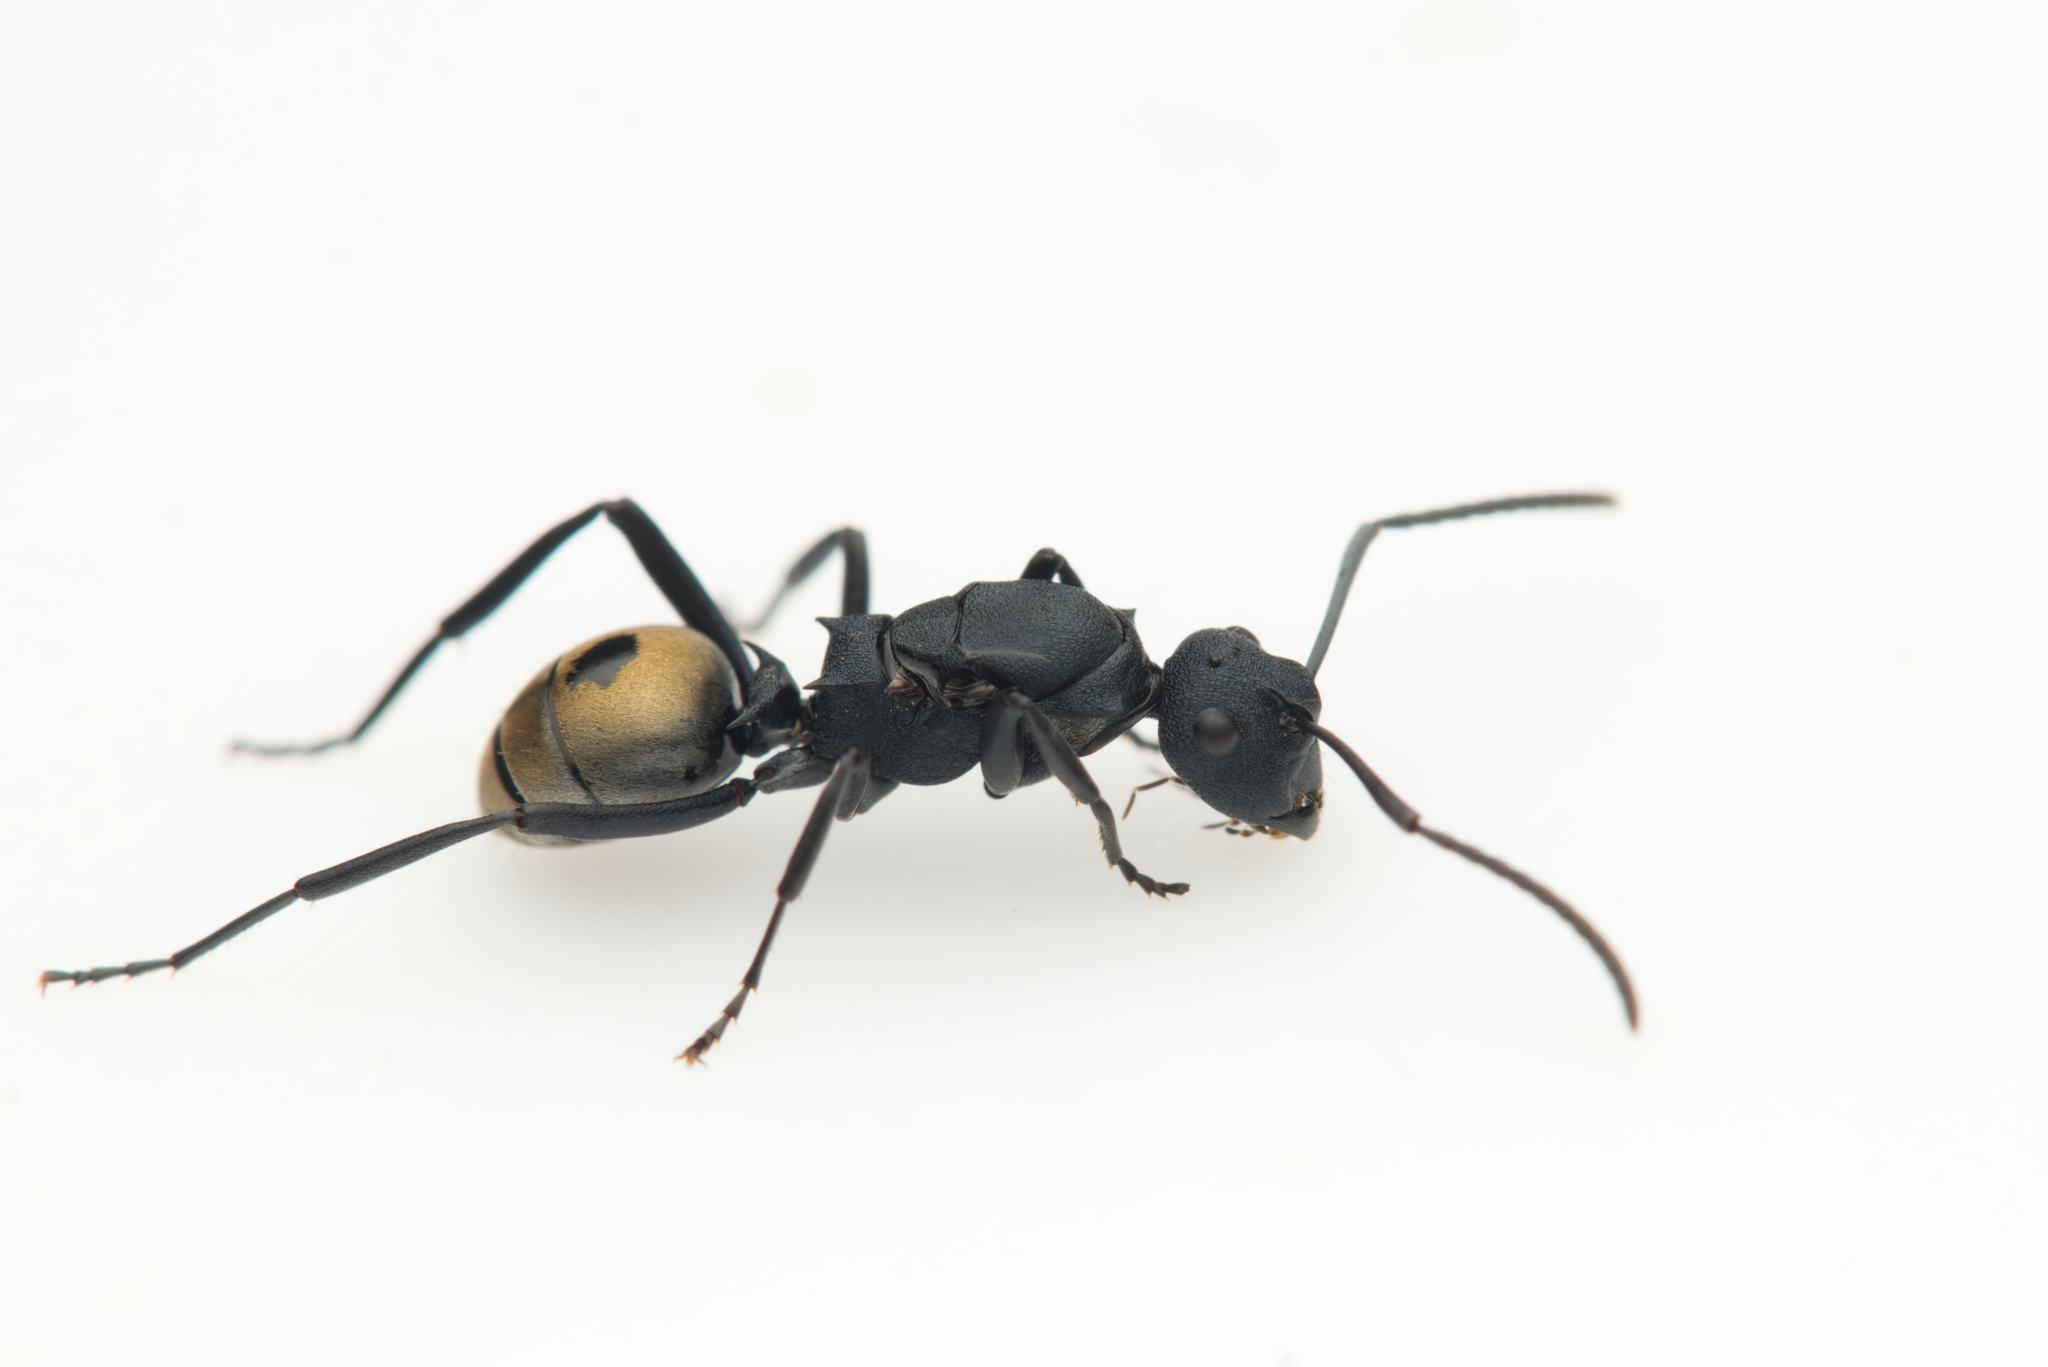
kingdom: Animalia
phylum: Arthropoda
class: Insecta
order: Hymenoptera
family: Formicidae
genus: Polyrhachis
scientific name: Polyrhachis euterpe
